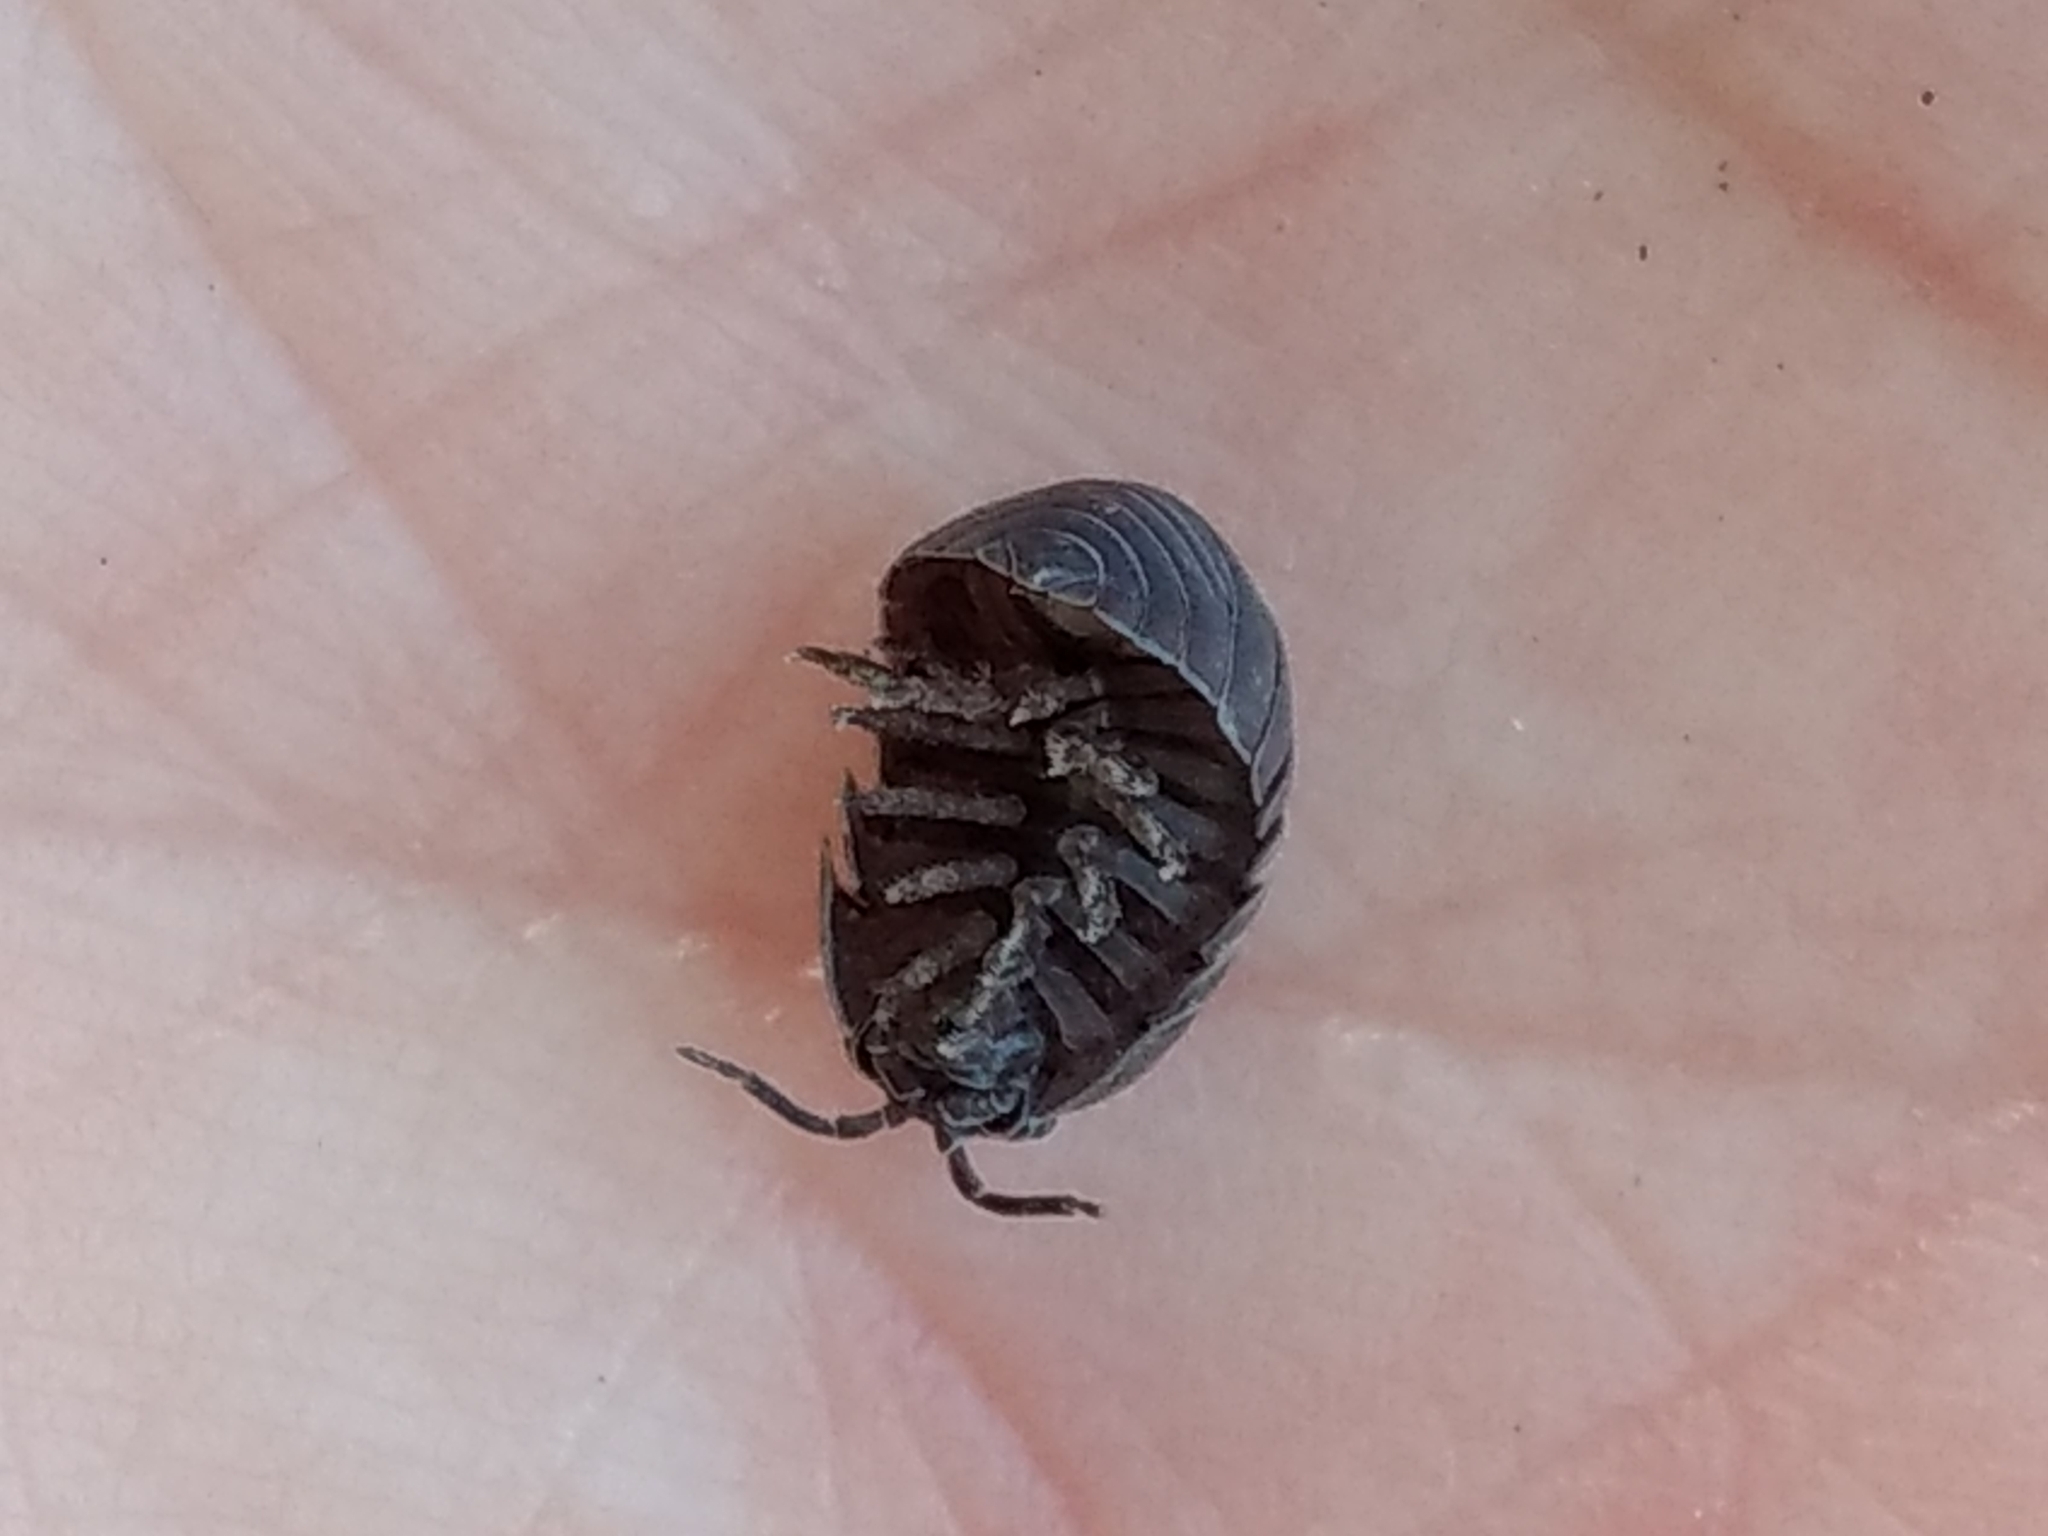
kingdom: Animalia
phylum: Arthropoda
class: Malacostraca
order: Isopoda
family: Armadillidiidae
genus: Armadillidium
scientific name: Armadillidium vulgare
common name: Common pill woodlouse
